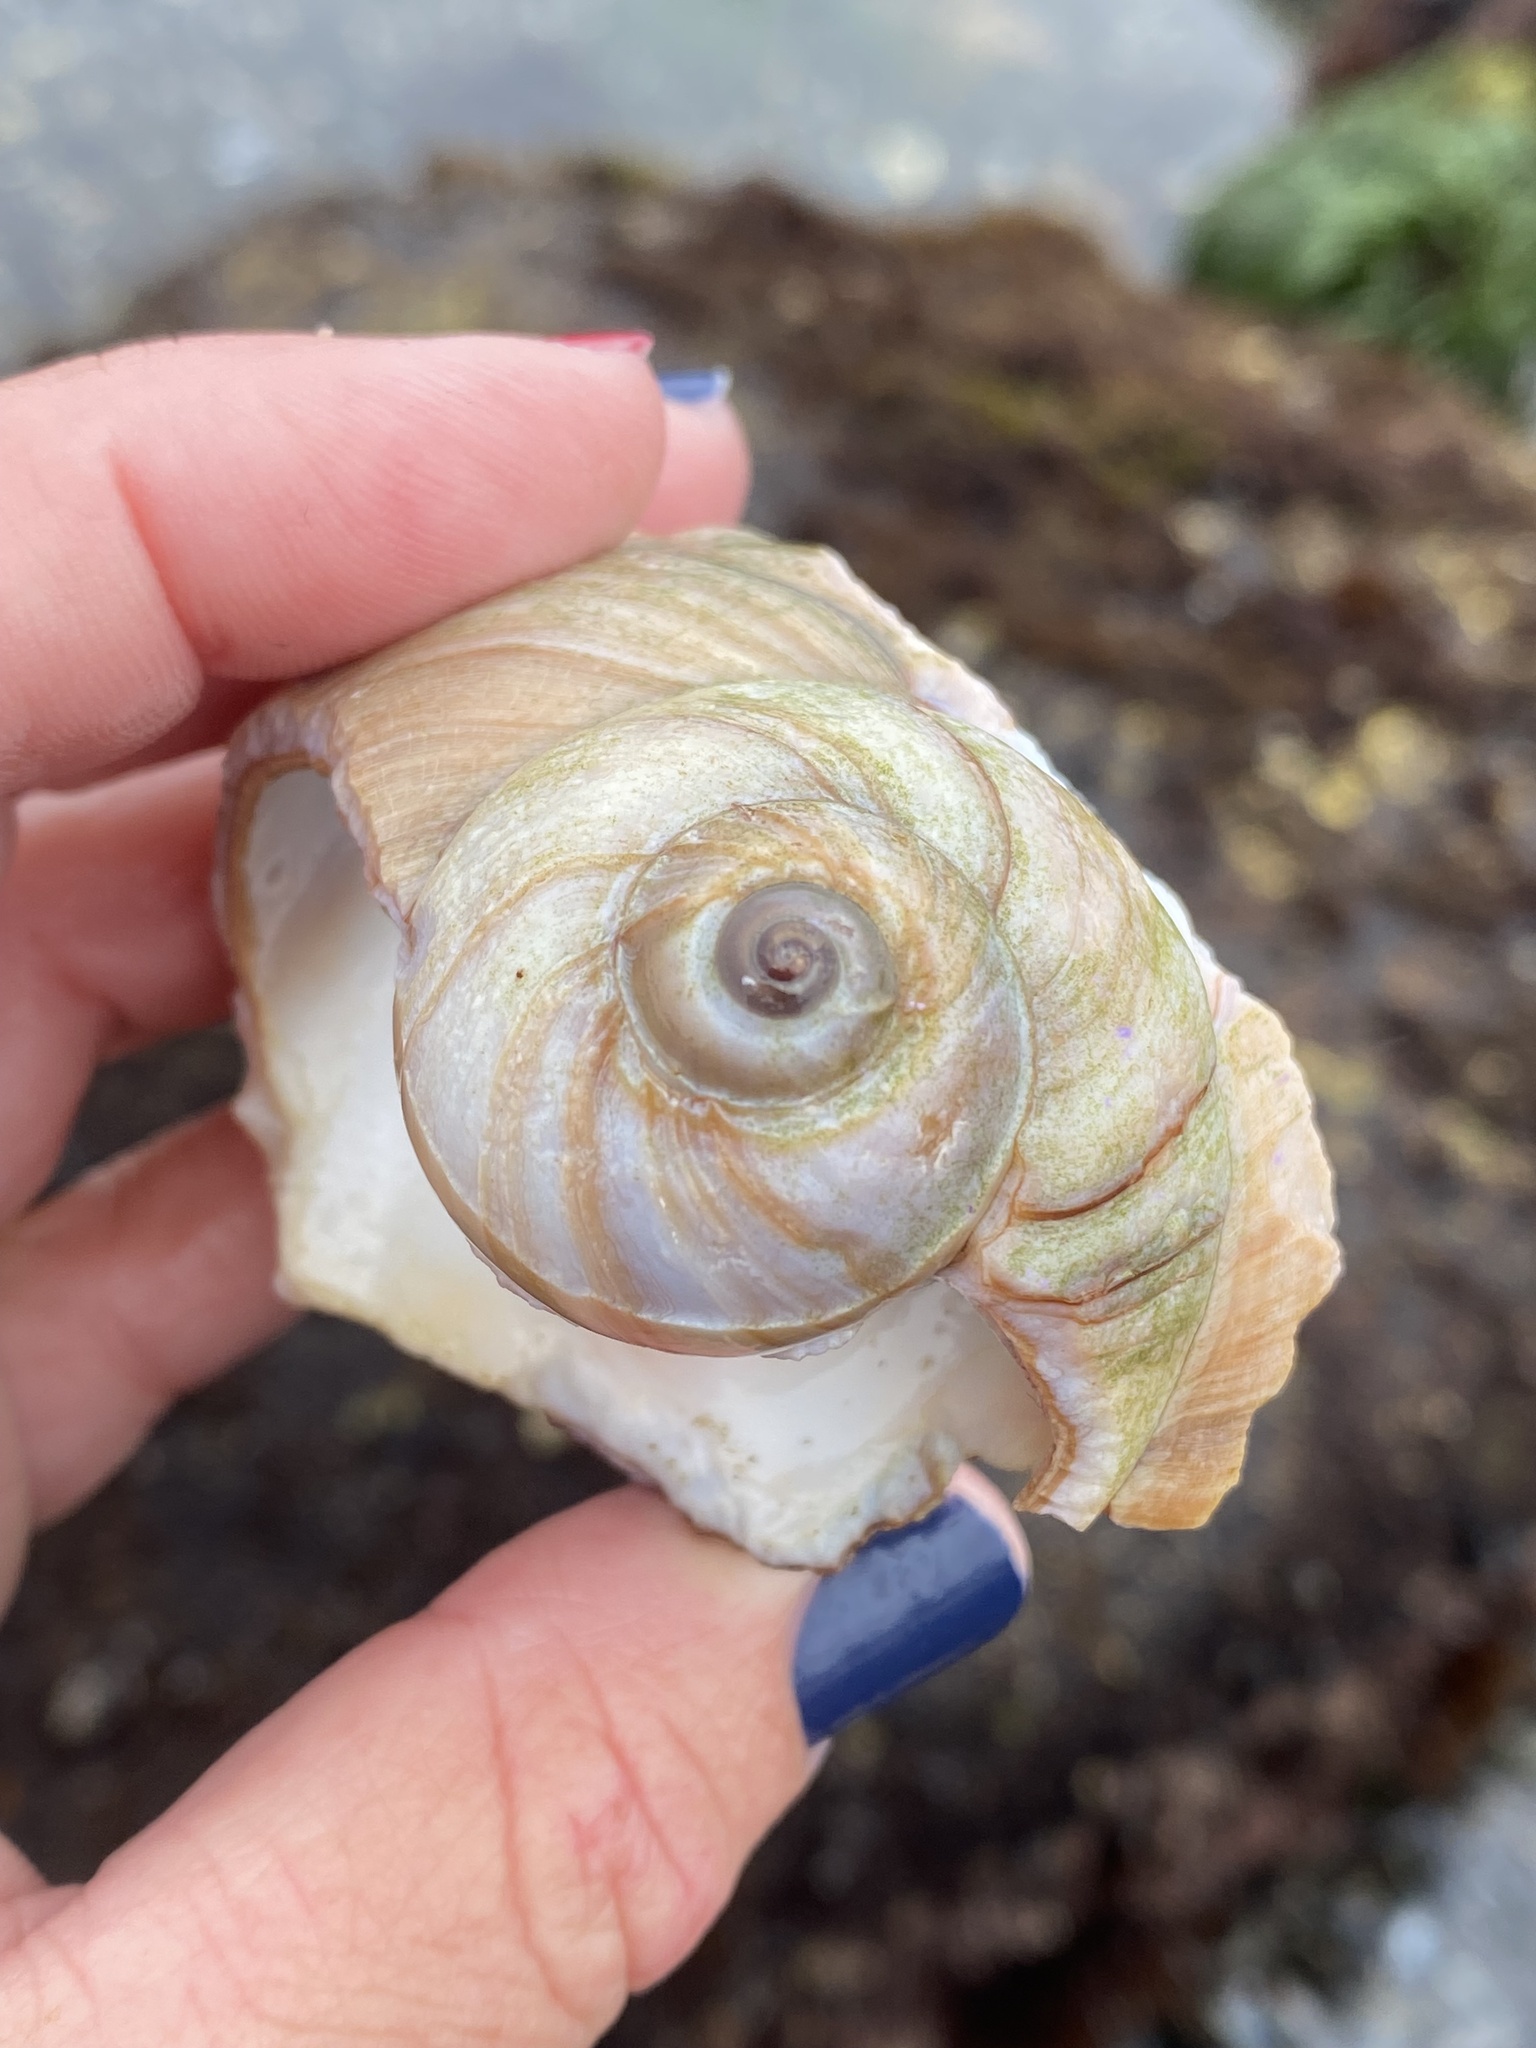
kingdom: Animalia
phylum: Mollusca
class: Gastropoda
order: Littorinimorpha
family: Naticidae
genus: Neverita
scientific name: Neverita lewisii
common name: Lewis' moonsnail
